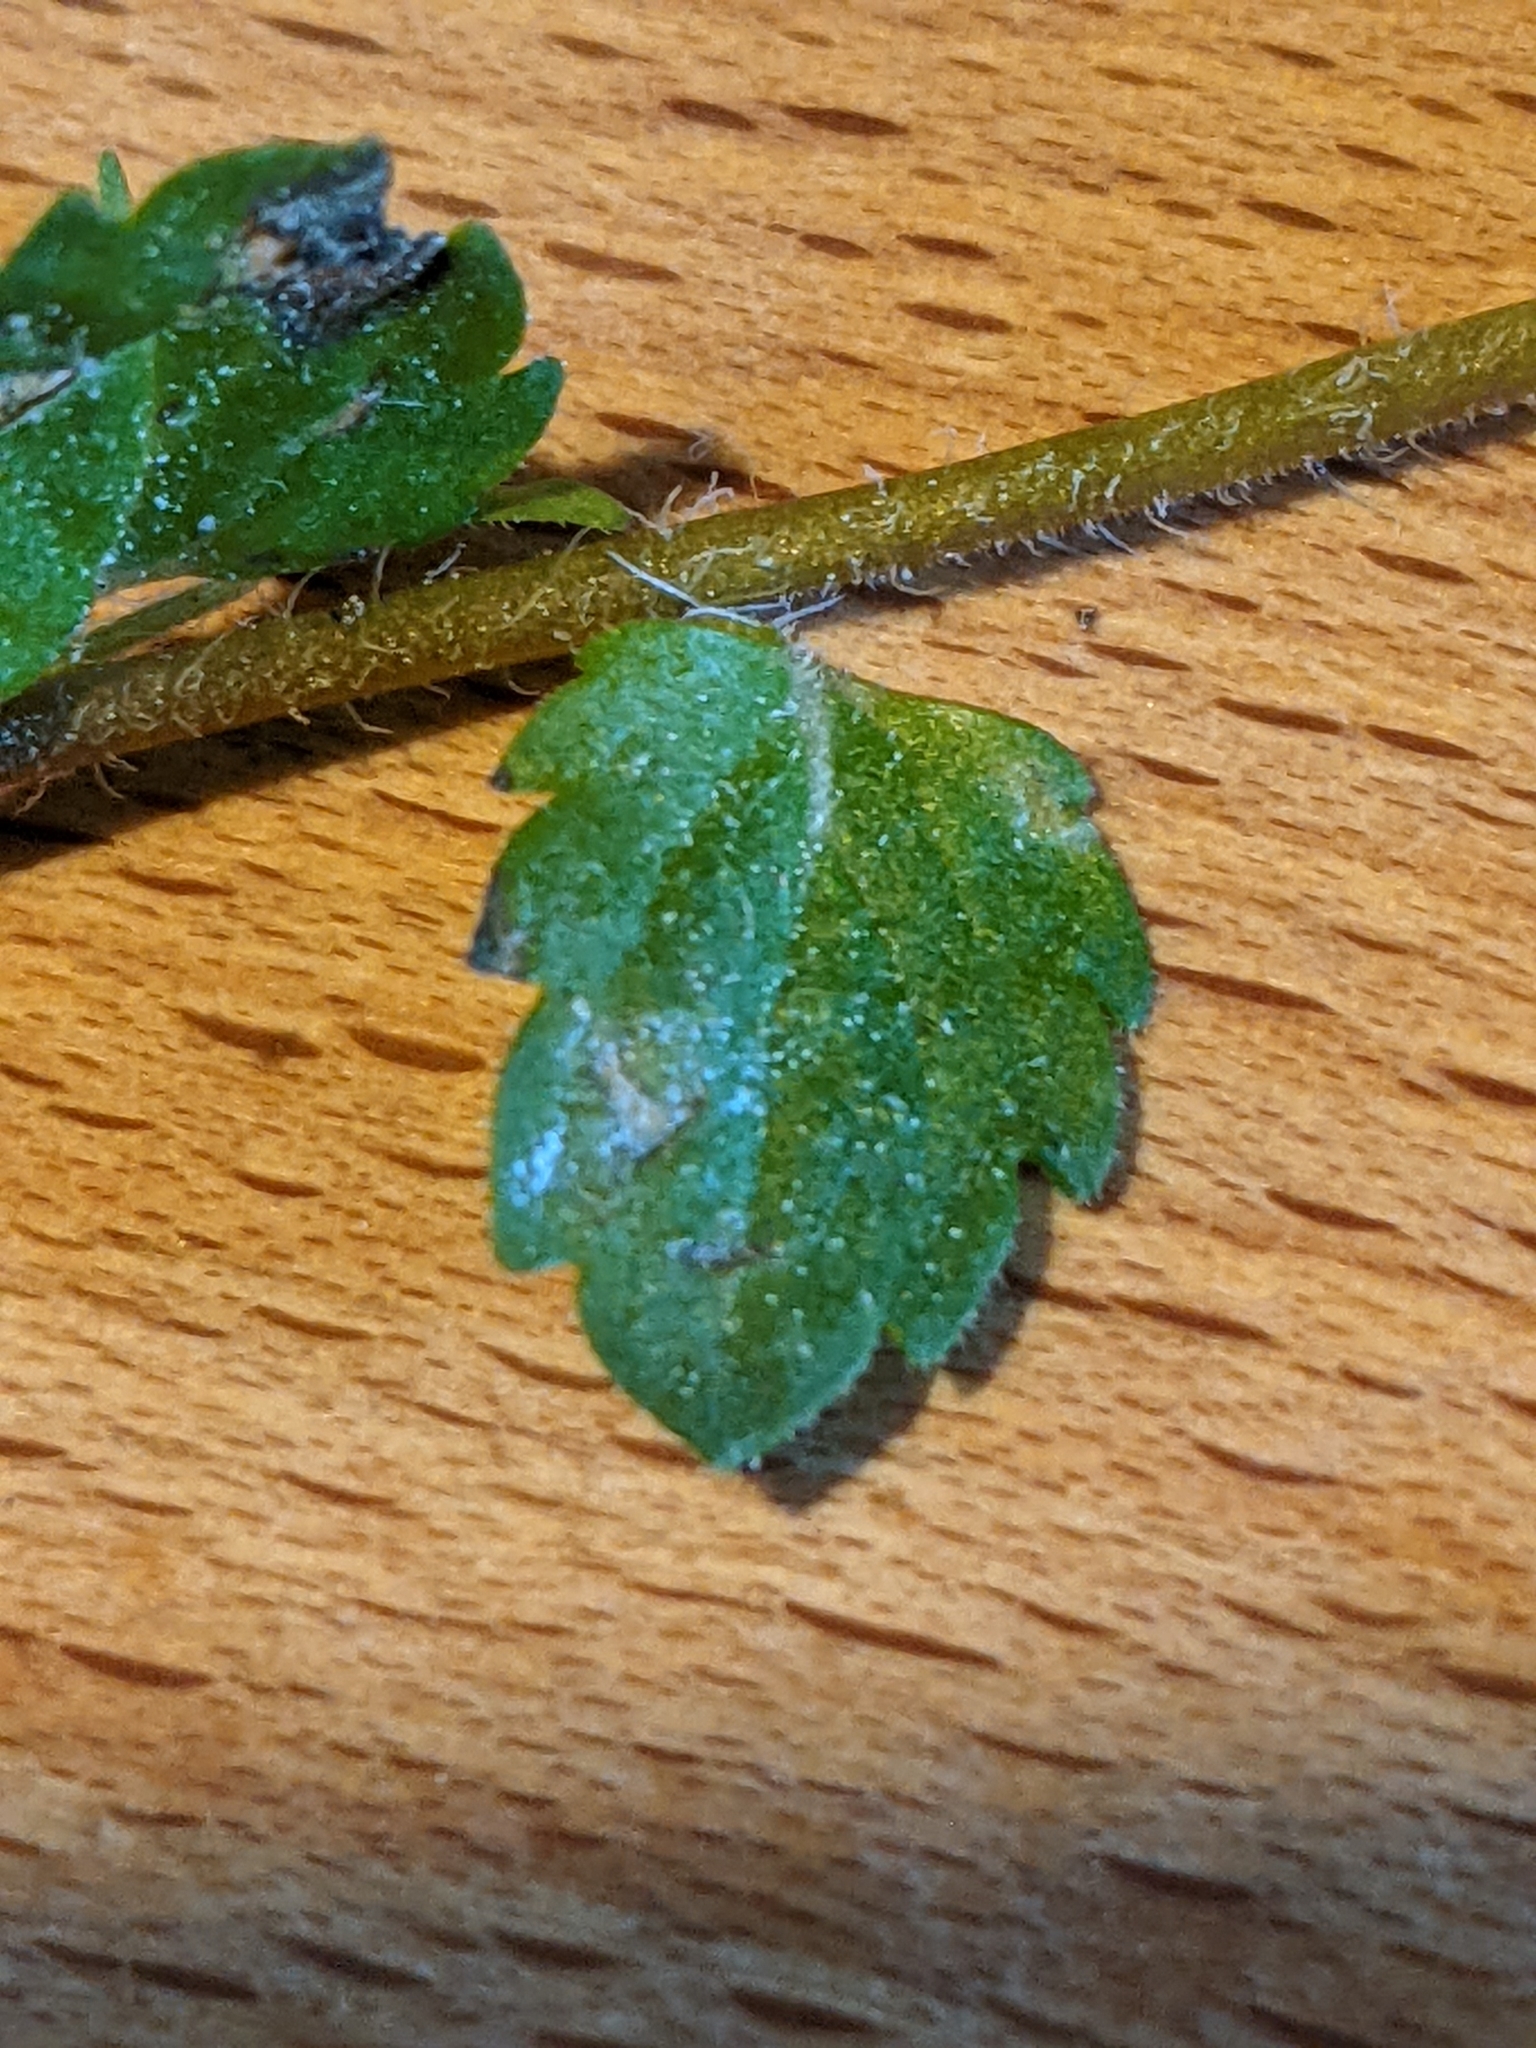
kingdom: Plantae
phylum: Tracheophyta
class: Magnoliopsida
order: Lamiales
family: Plantaginaceae
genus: Veronica
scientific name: Veronica persica
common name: Common field-speedwell
